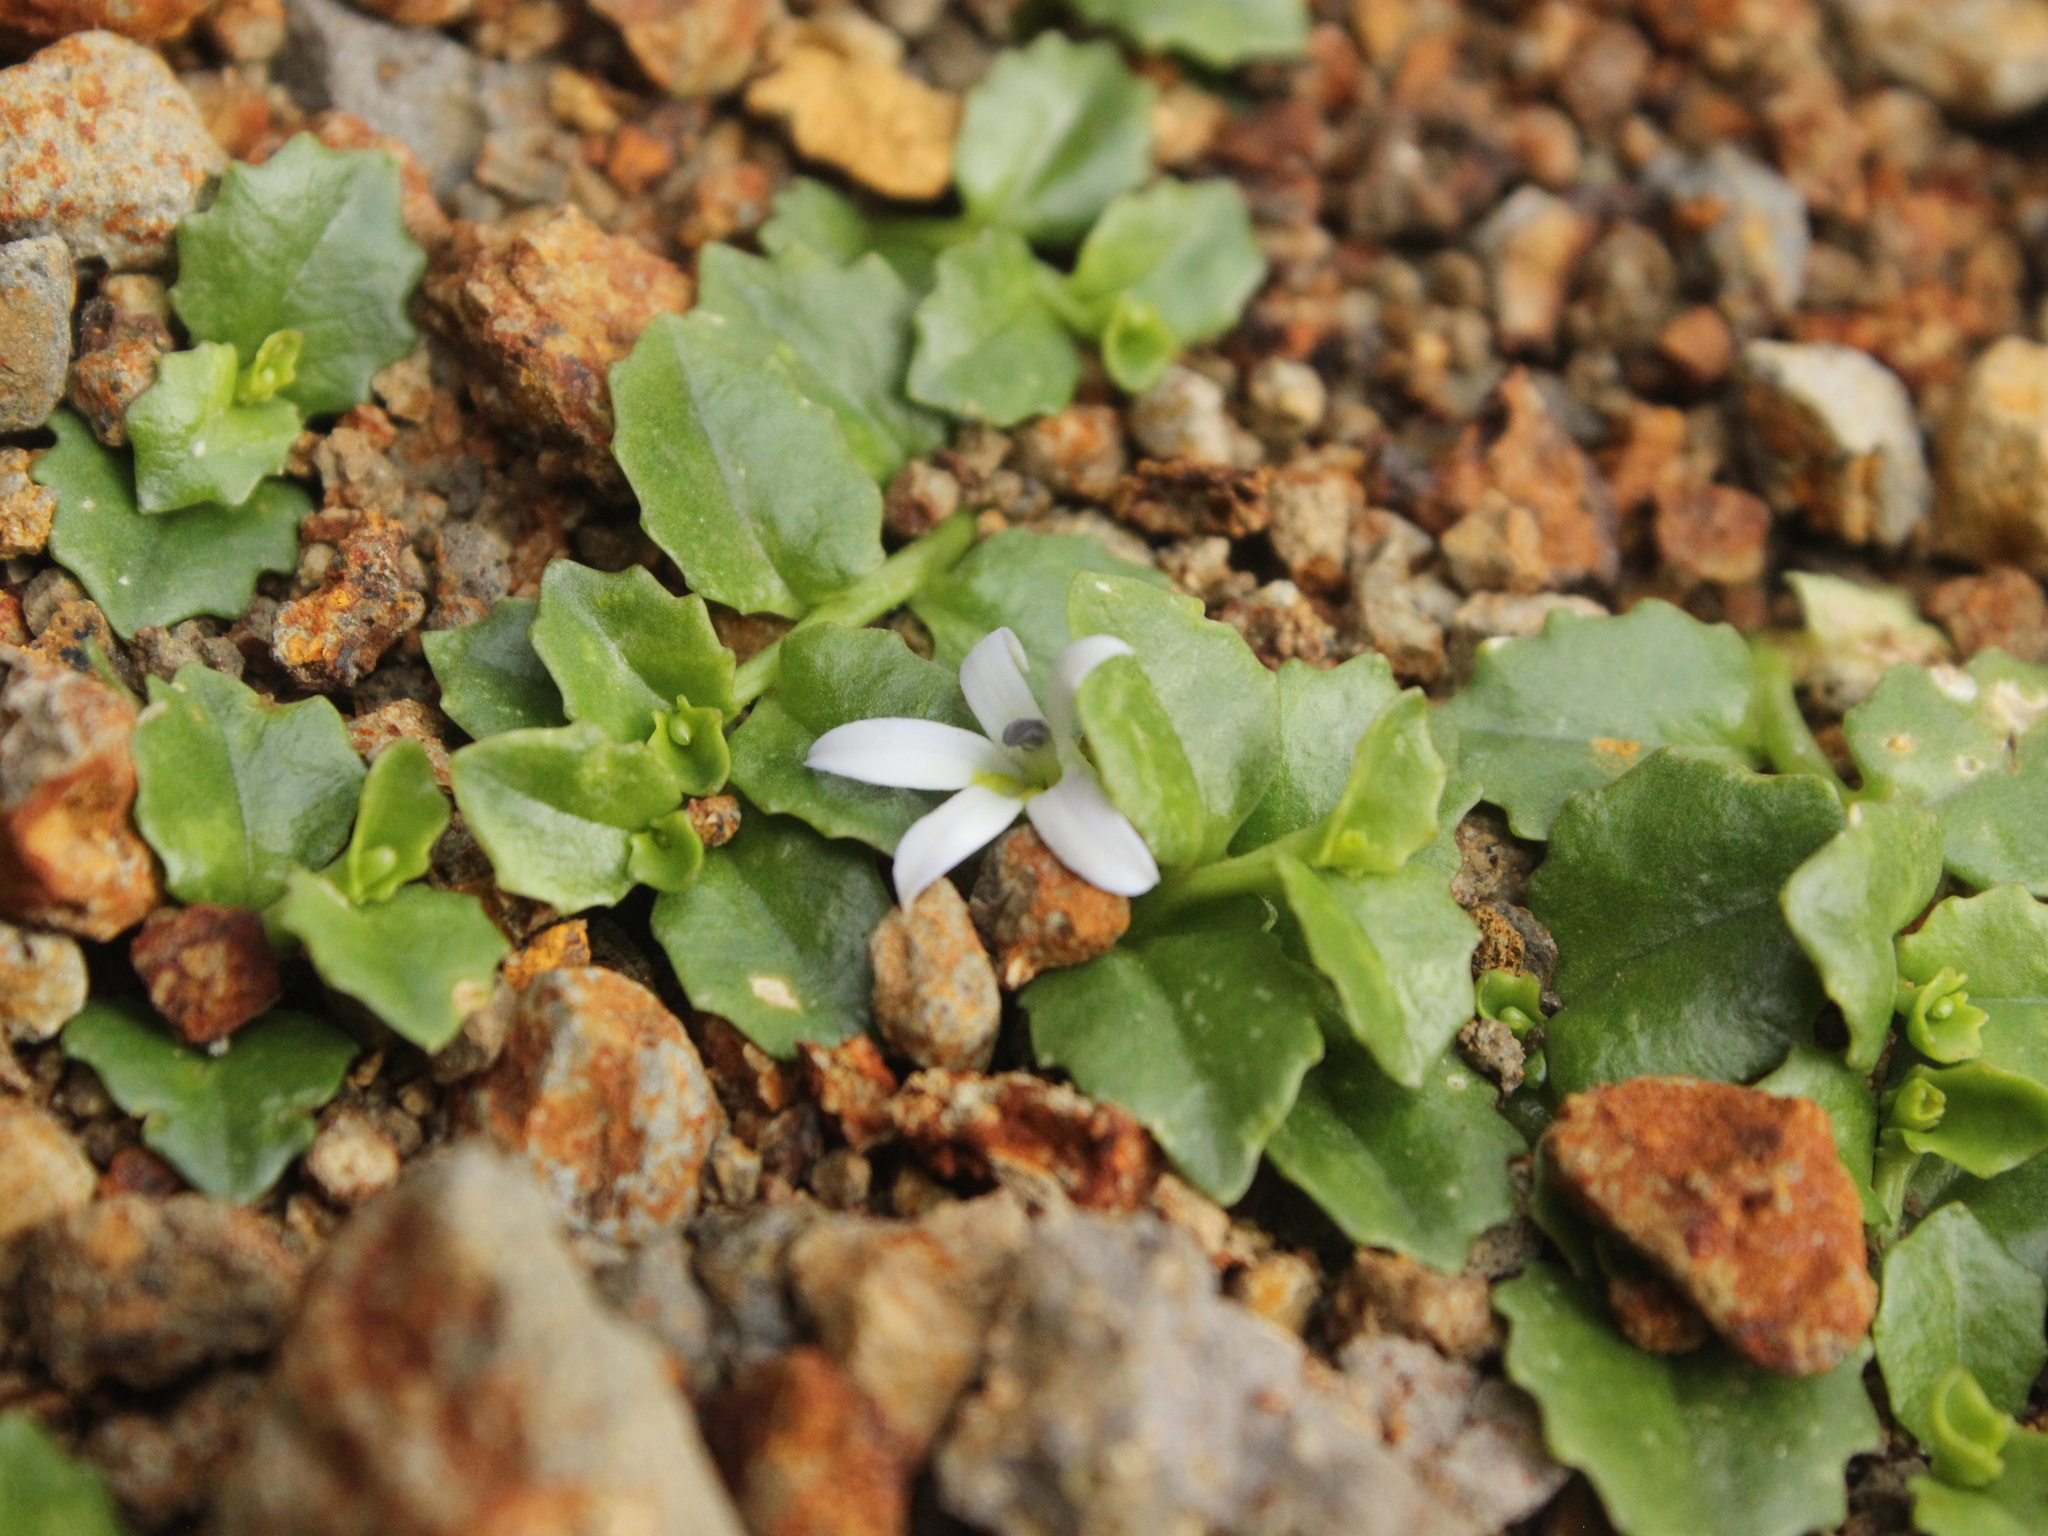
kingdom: Plantae
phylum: Tracheophyta
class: Magnoliopsida
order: Asterales
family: Campanulaceae
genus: Lobelia
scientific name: Lobelia arenaria
